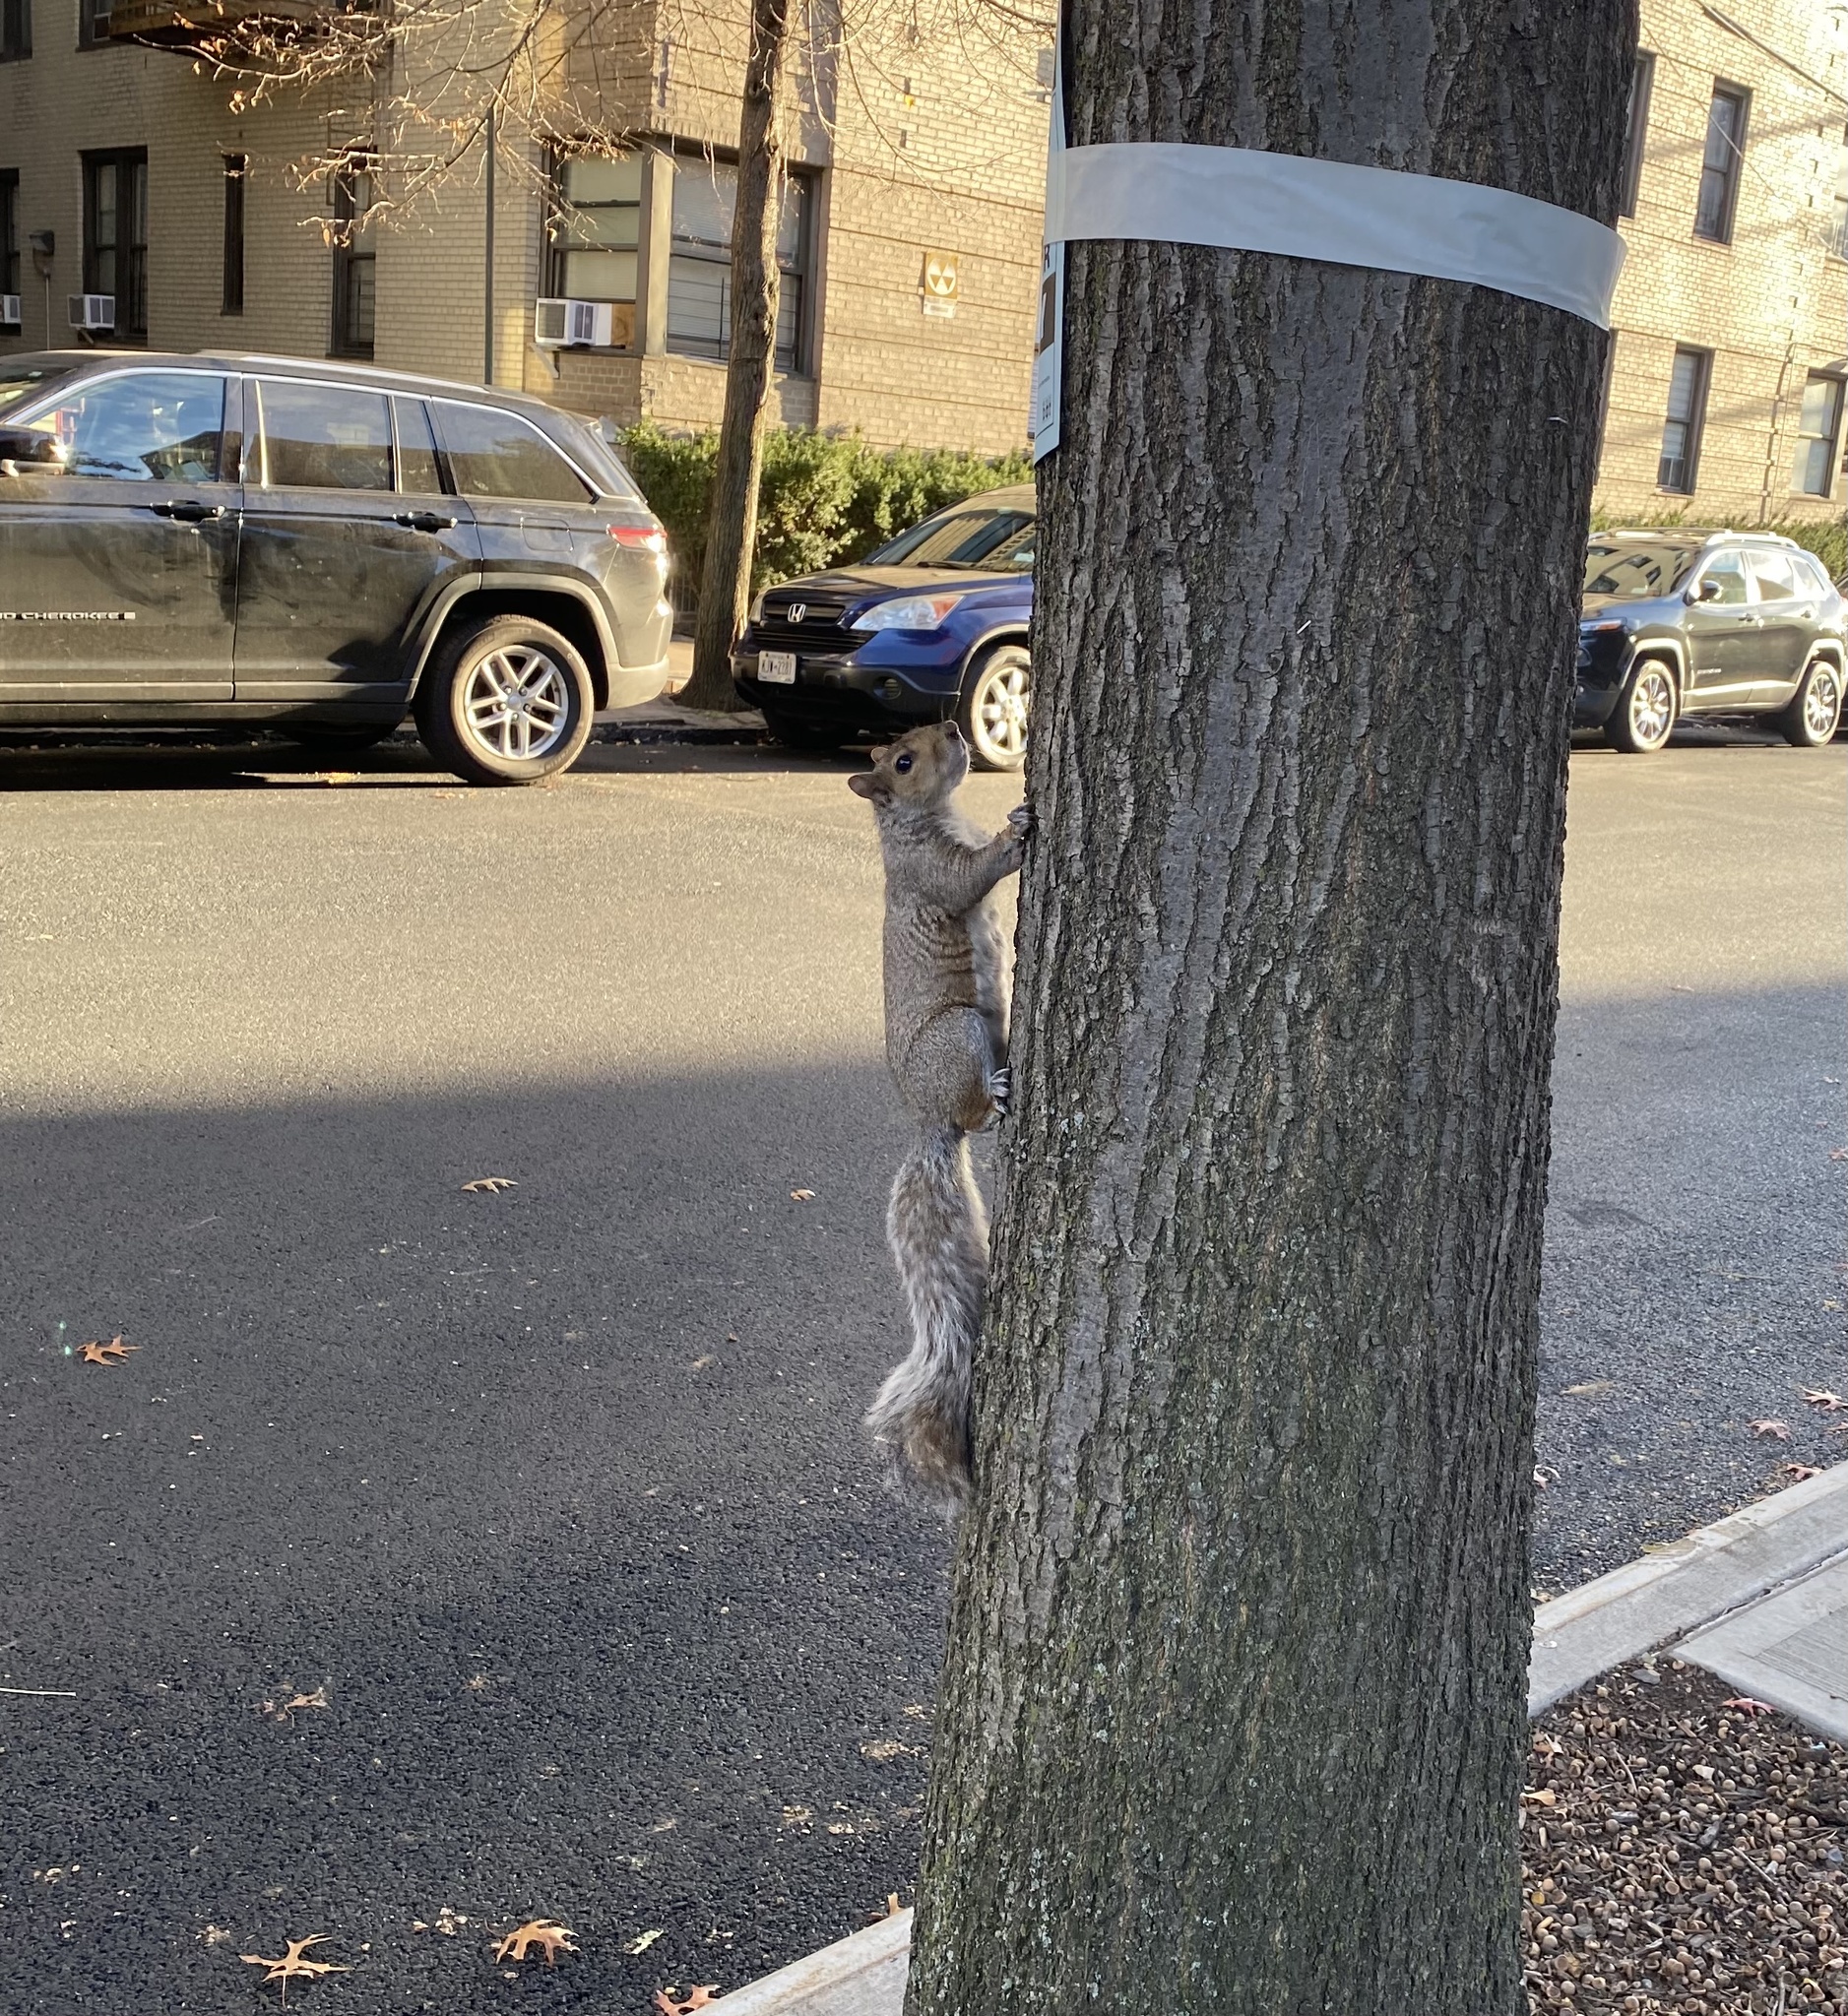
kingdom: Animalia
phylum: Chordata
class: Mammalia
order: Rodentia
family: Sciuridae
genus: Sciurus
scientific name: Sciurus carolinensis
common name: Eastern gray squirrel
